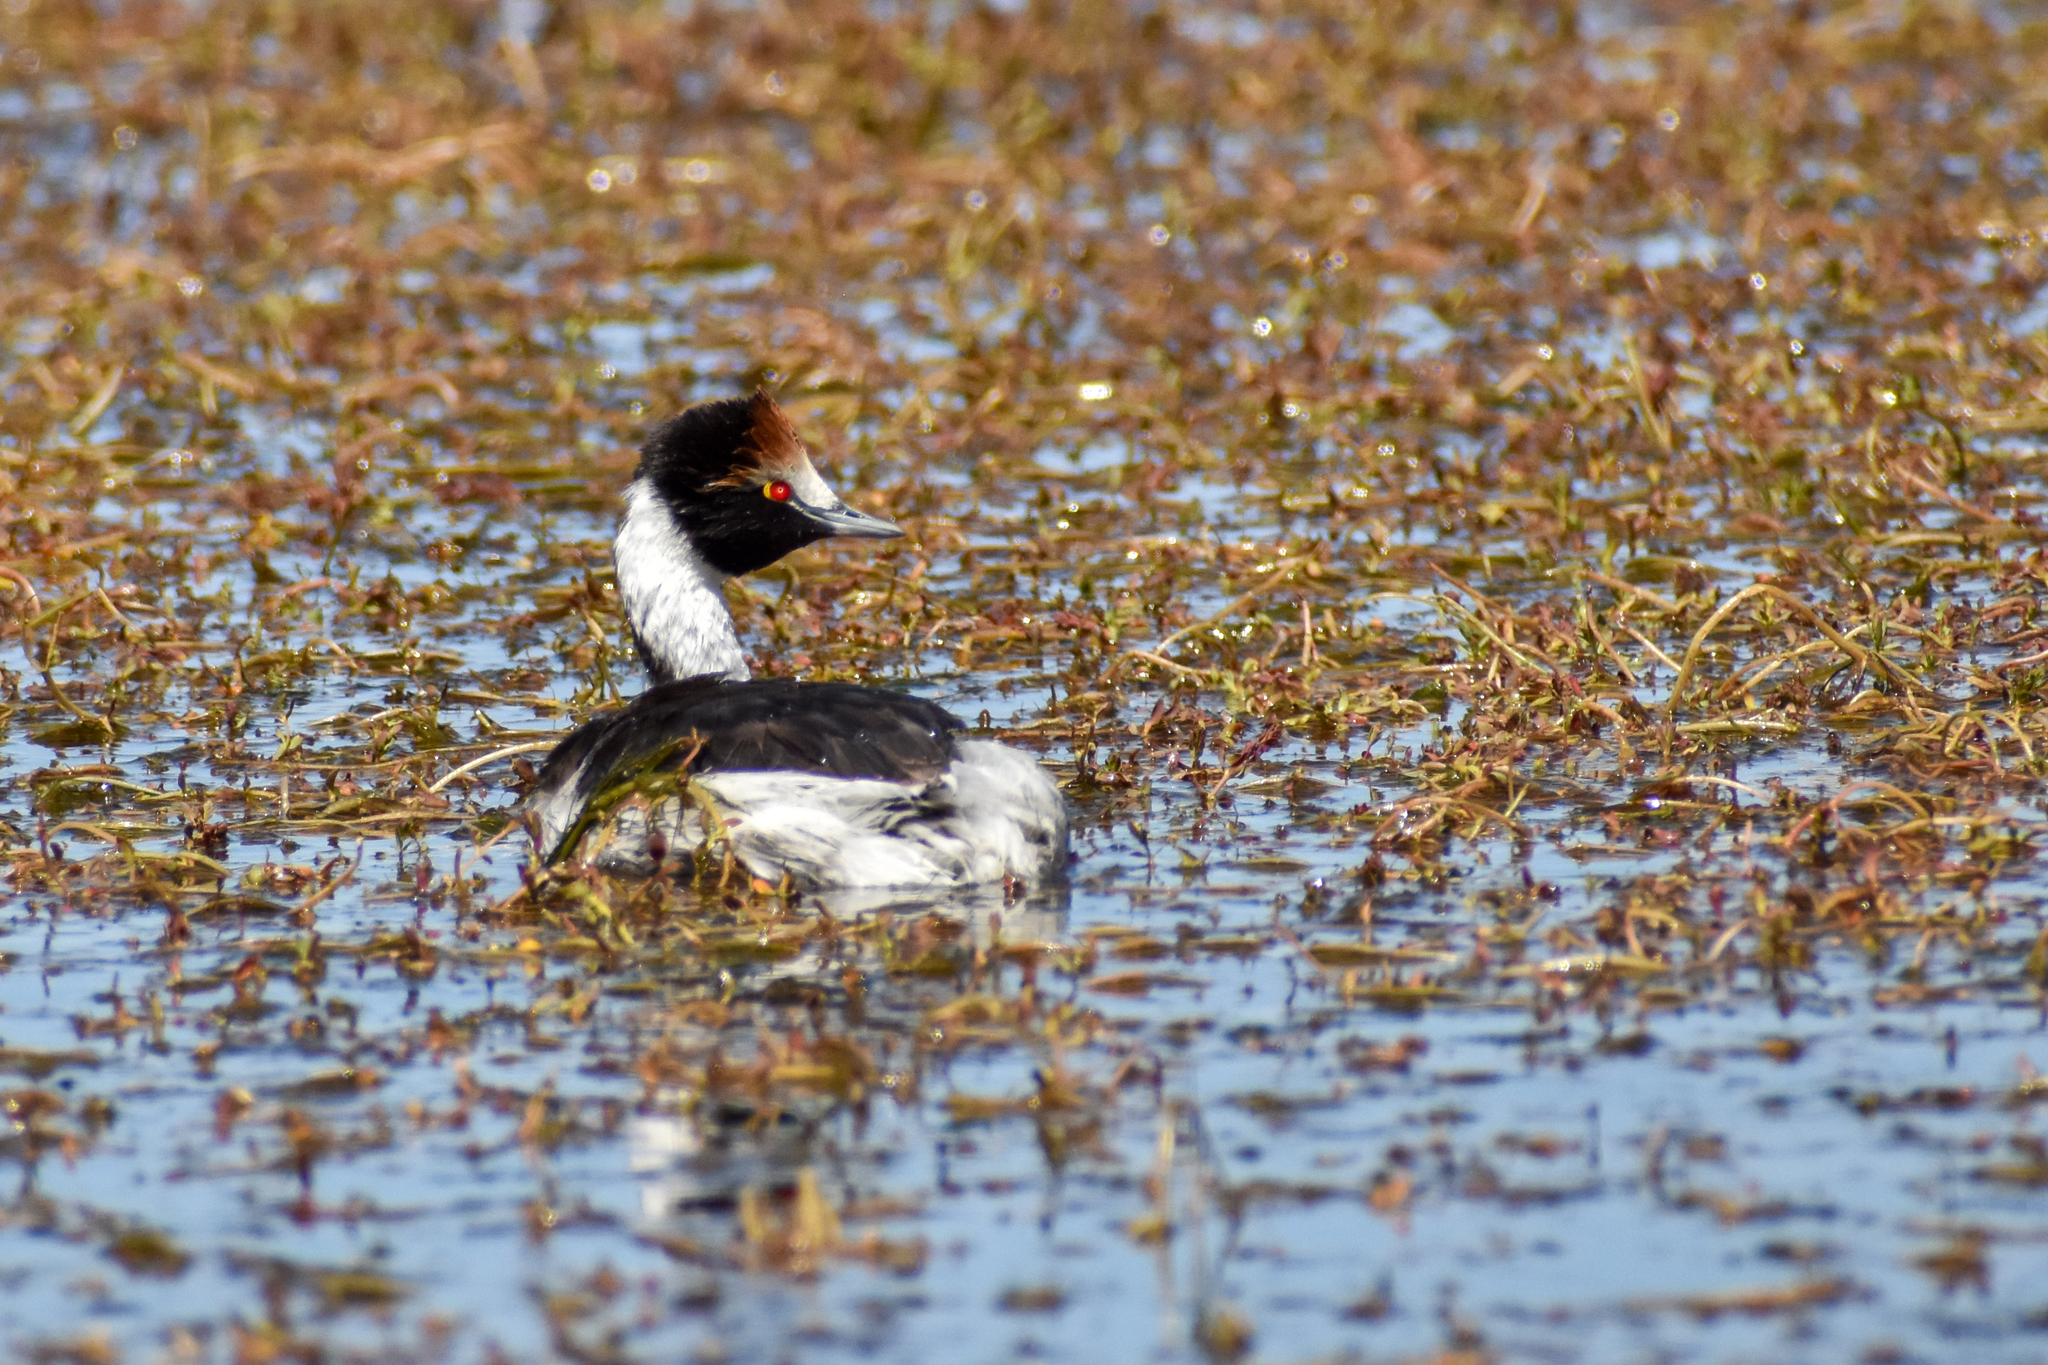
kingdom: Animalia
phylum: Chordata
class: Aves
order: Podicipediformes
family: Podicipedidae
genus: Podiceps
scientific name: Podiceps gallardoi
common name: Hooded grebe
